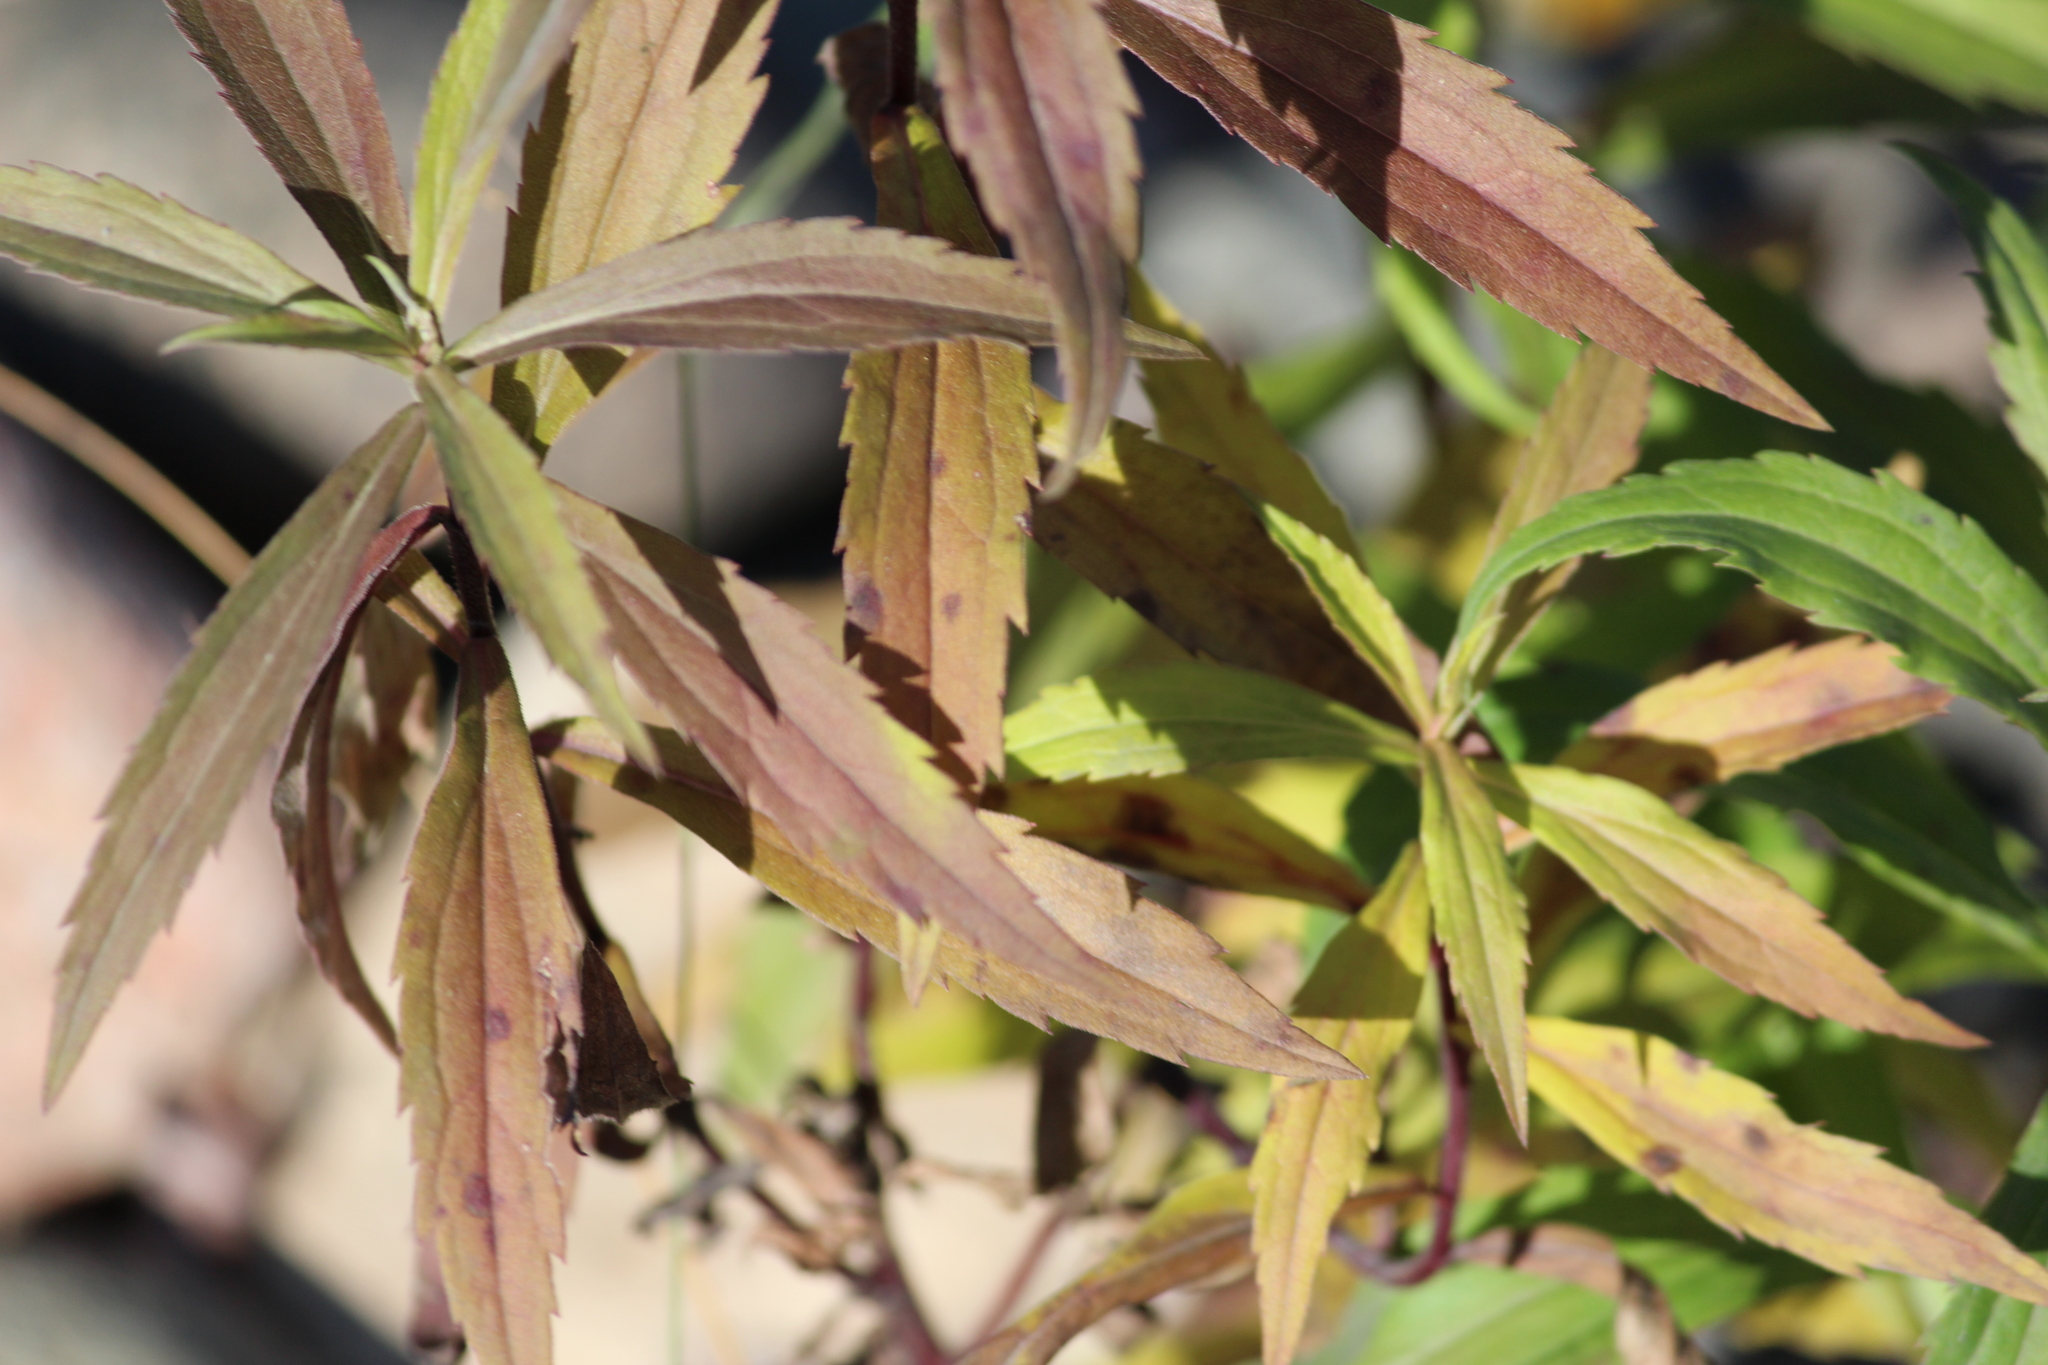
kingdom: Plantae
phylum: Tracheophyta
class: Magnoliopsida
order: Asterales
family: Asteraceae
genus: Solidago
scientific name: Solidago canadensis
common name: Canada goldenrod
